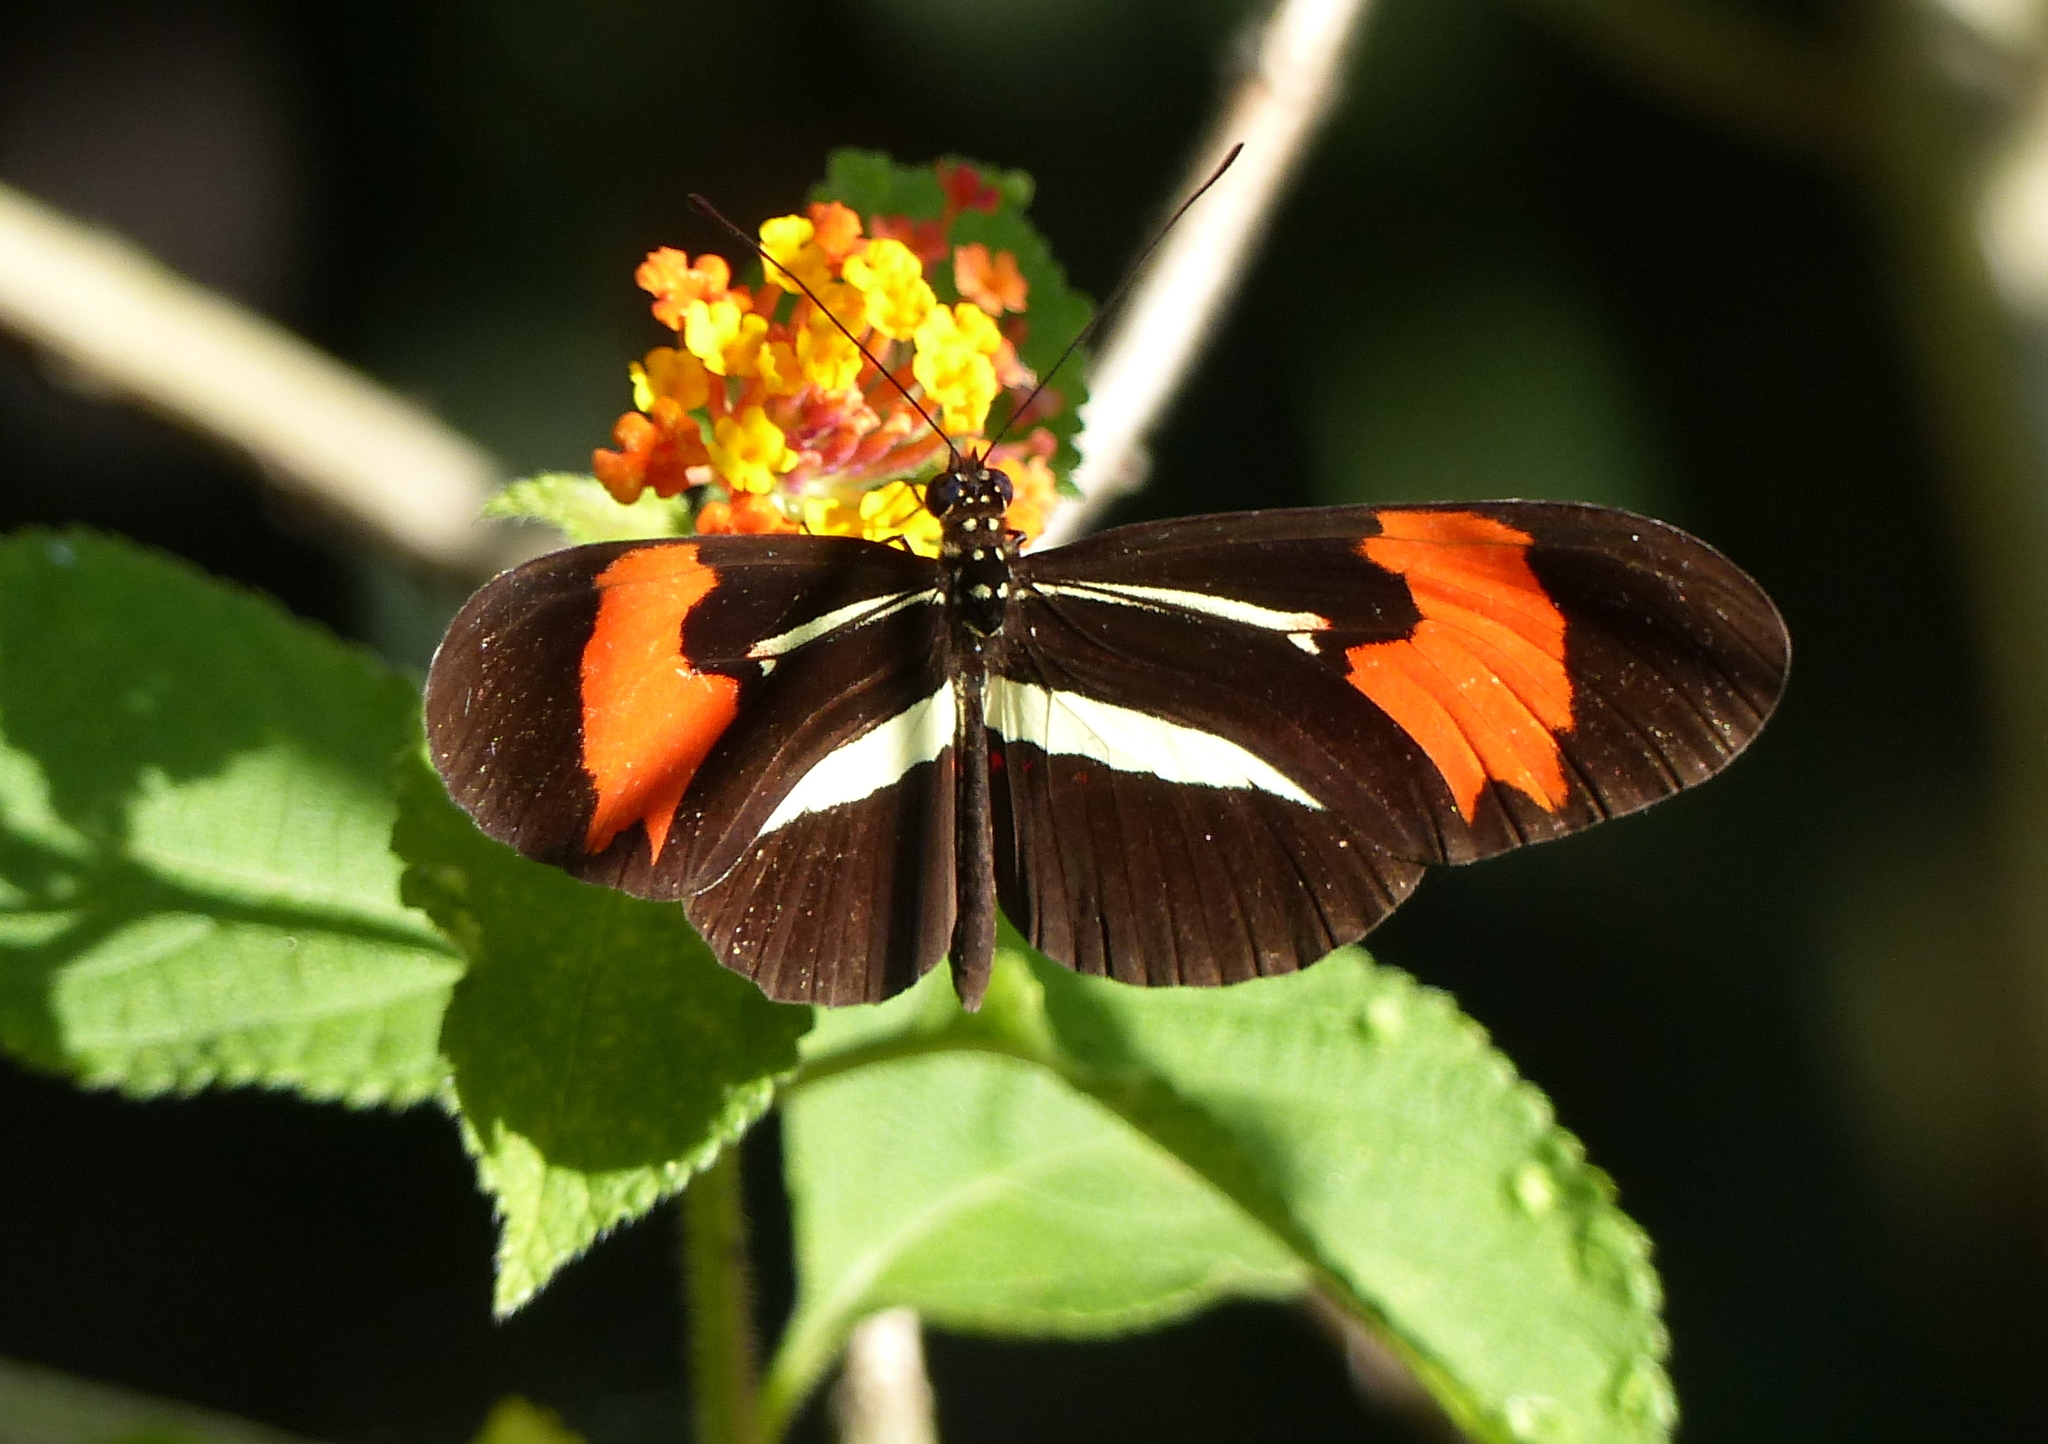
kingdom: Animalia
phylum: Arthropoda
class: Insecta
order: Lepidoptera
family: Nymphalidae
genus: Heliconius
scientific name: Heliconius erato
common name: Common patch longwing
